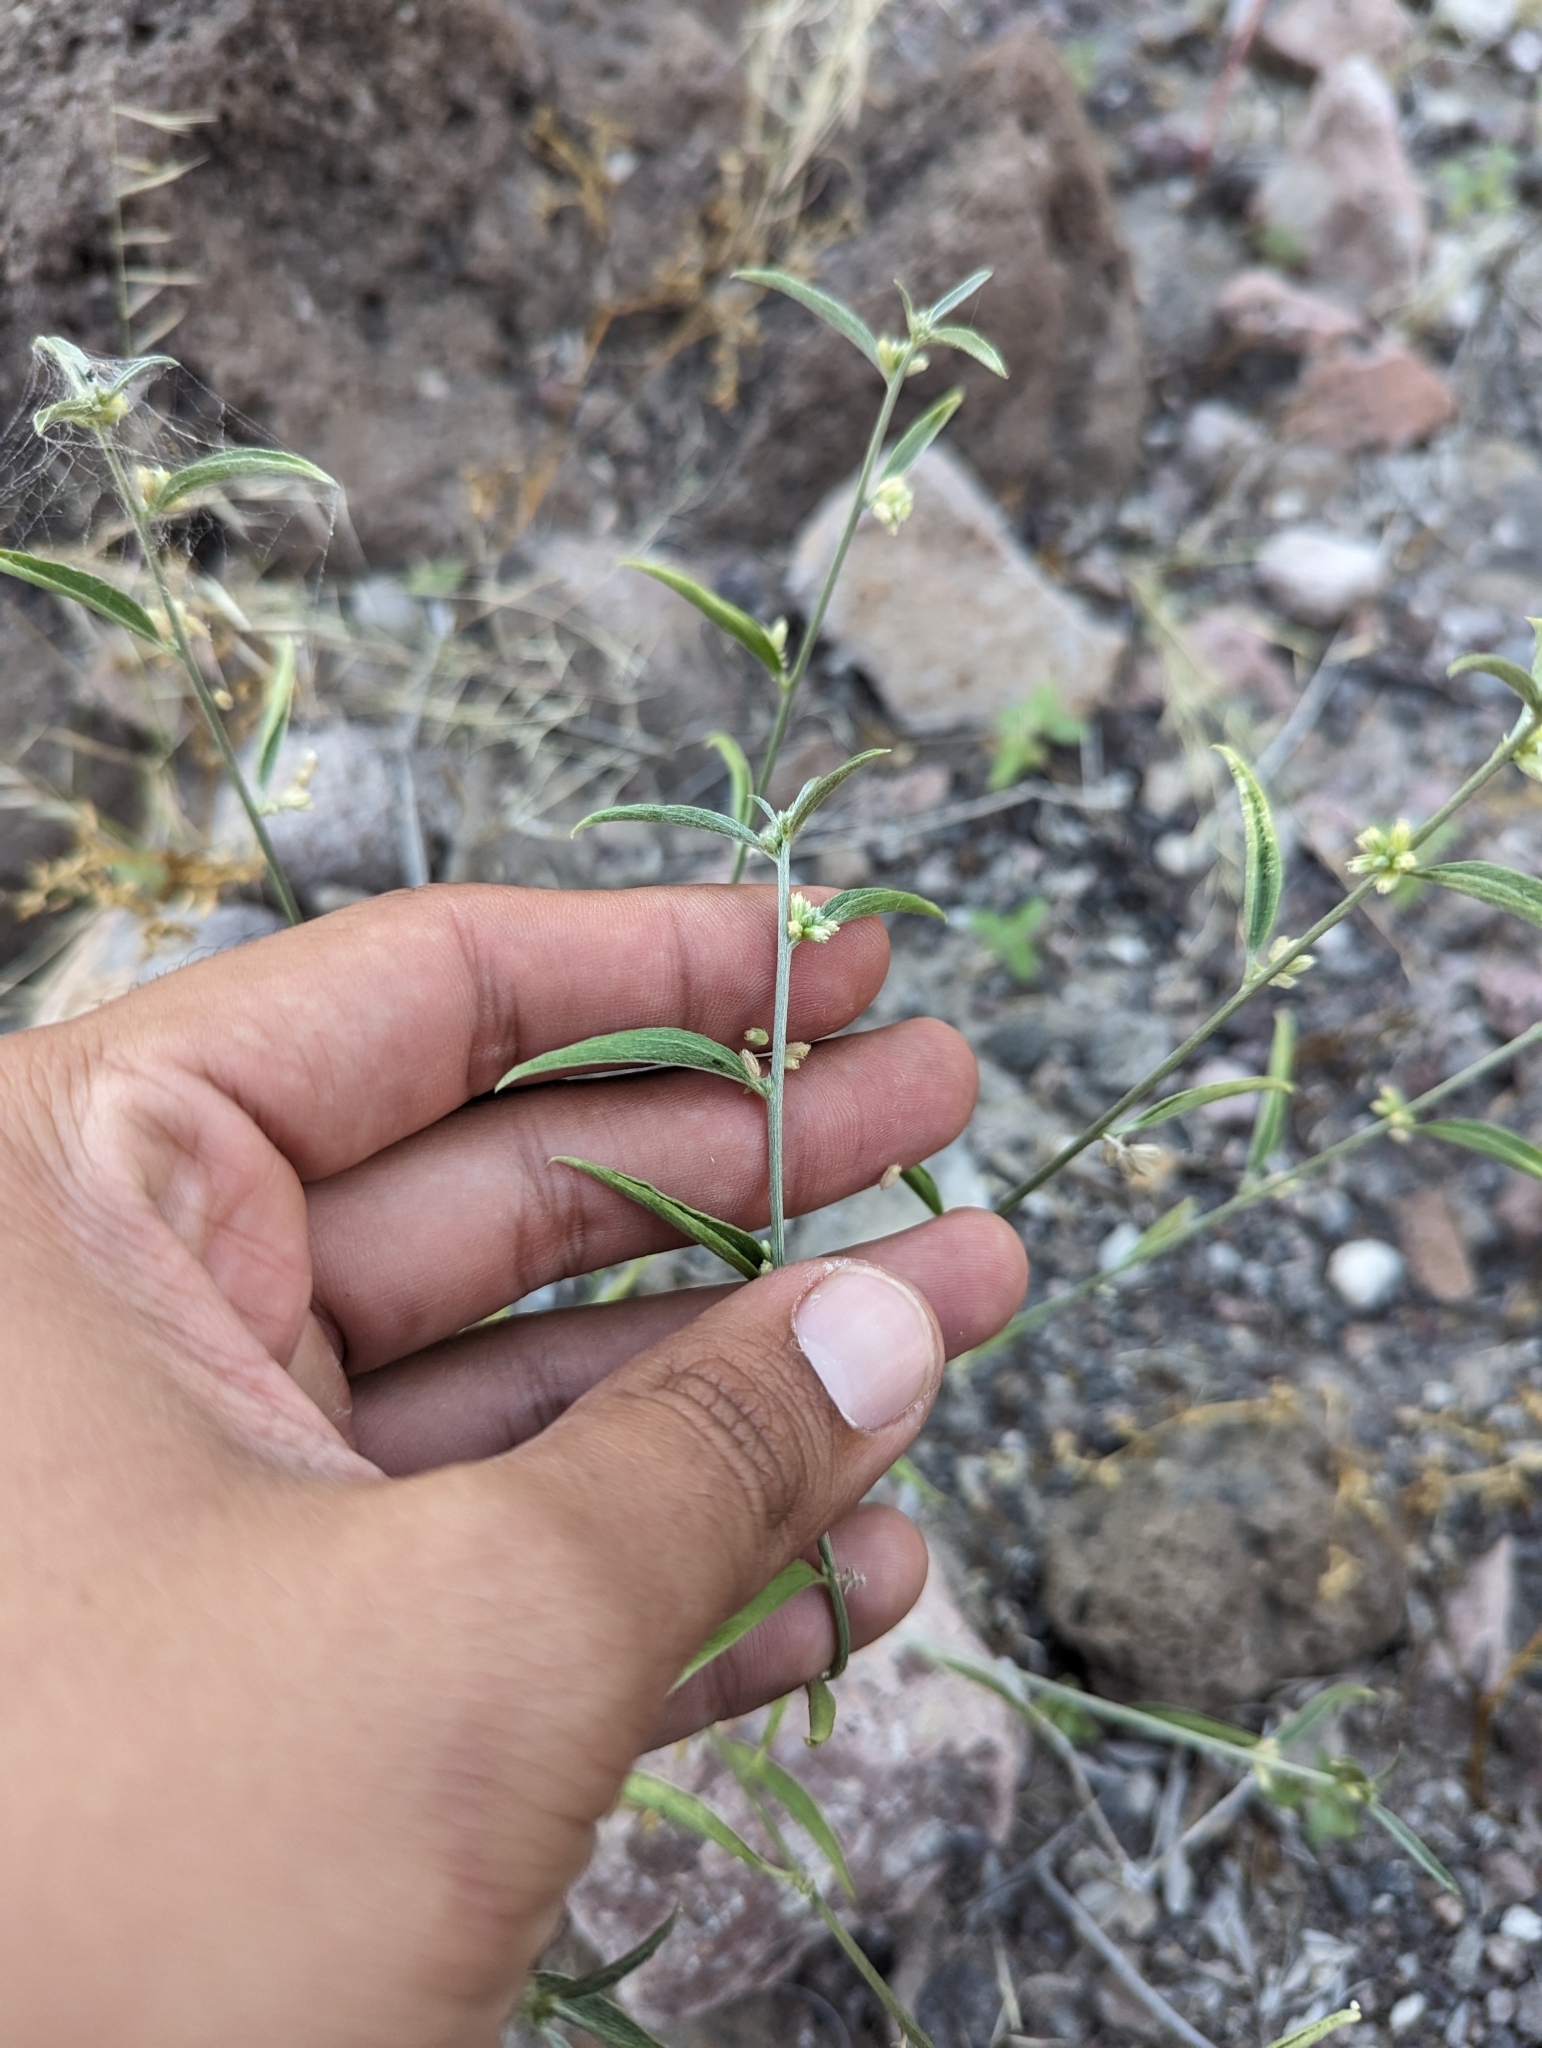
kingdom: Plantae
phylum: Tracheophyta
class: Magnoliopsida
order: Malpighiales
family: Euphorbiaceae
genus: Ditaxis
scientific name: Ditaxis lanceolata
